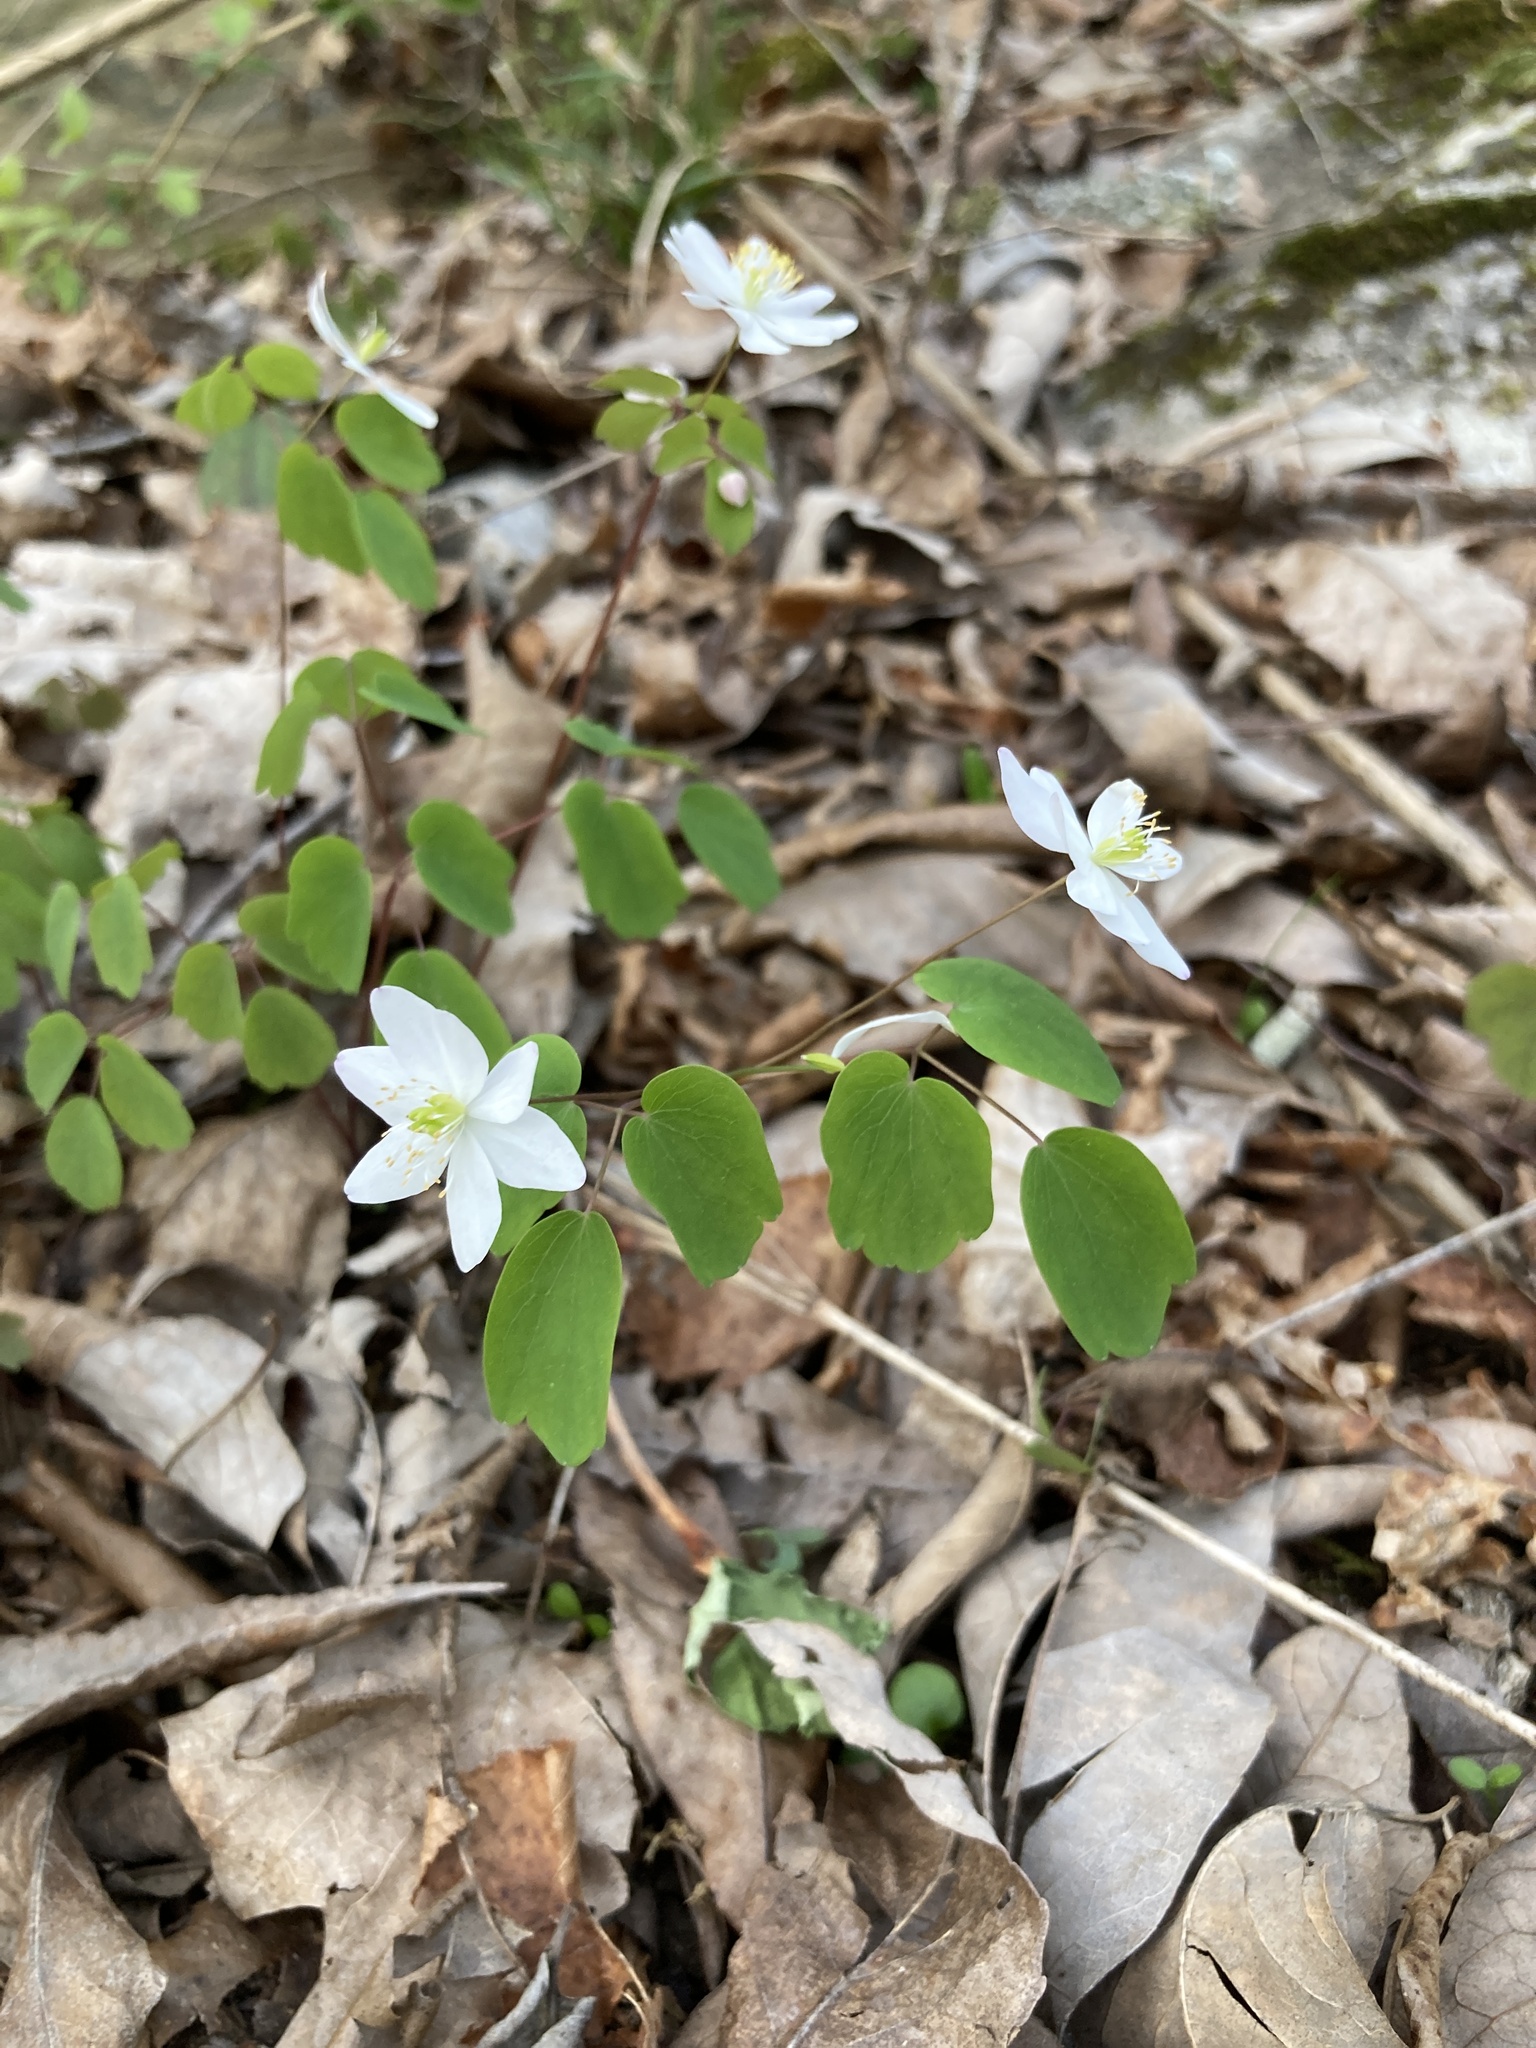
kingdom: Plantae
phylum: Tracheophyta
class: Magnoliopsida
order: Ranunculales
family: Ranunculaceae
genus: Thalictrum
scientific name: Thalictrum thalictroides
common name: Rue-anemone
